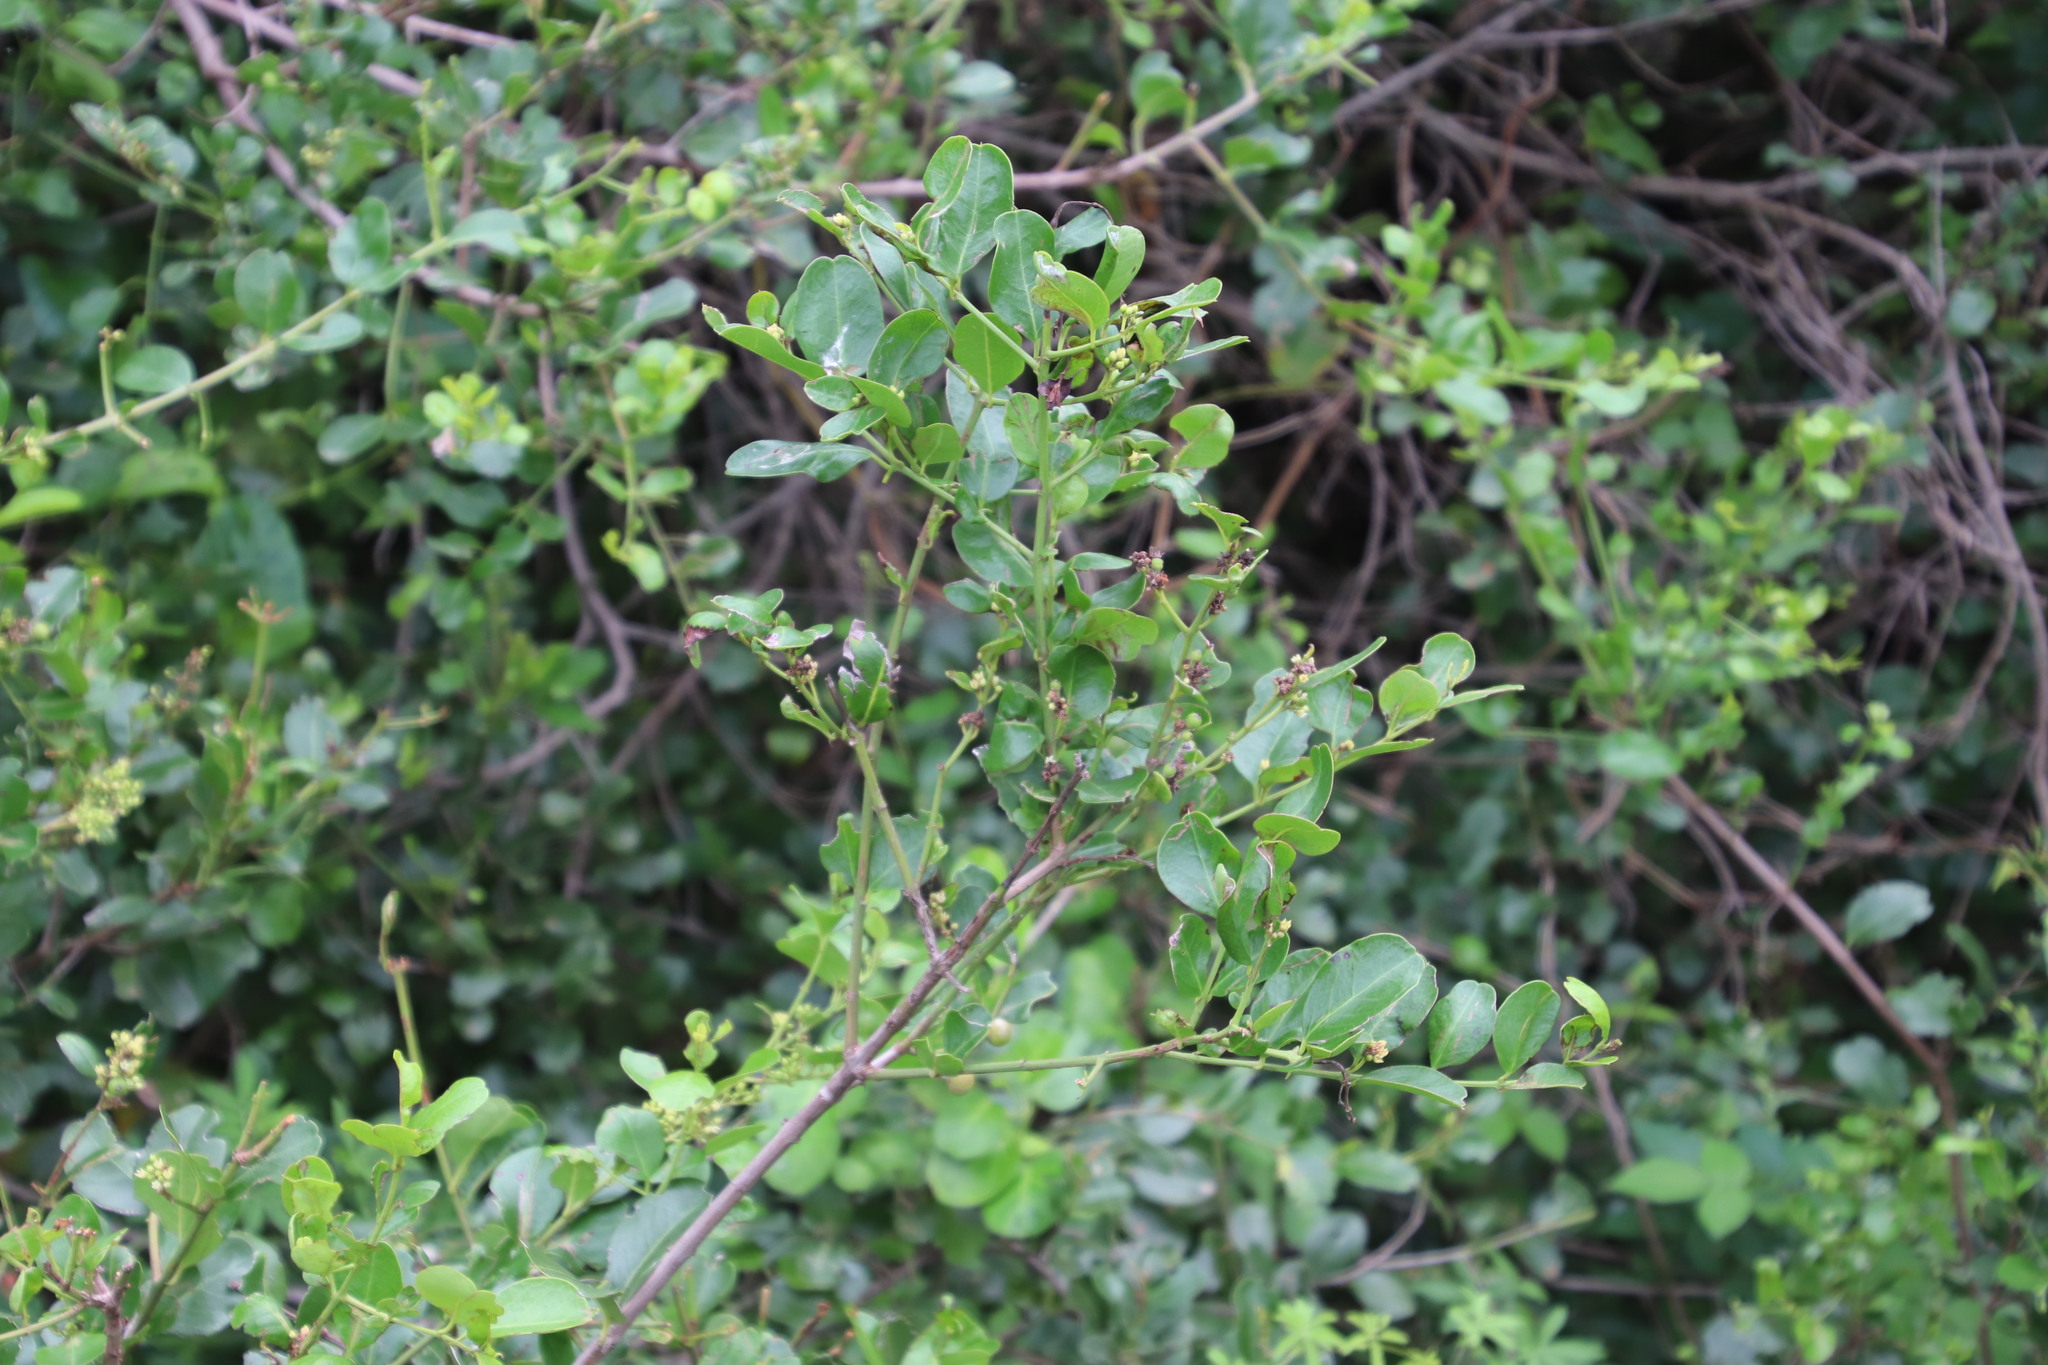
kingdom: Plantae
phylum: Tracheophyta
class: Magnoliopsida
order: Rosales
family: Rhamnaceae
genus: Scutia
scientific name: Scutia myrtina
